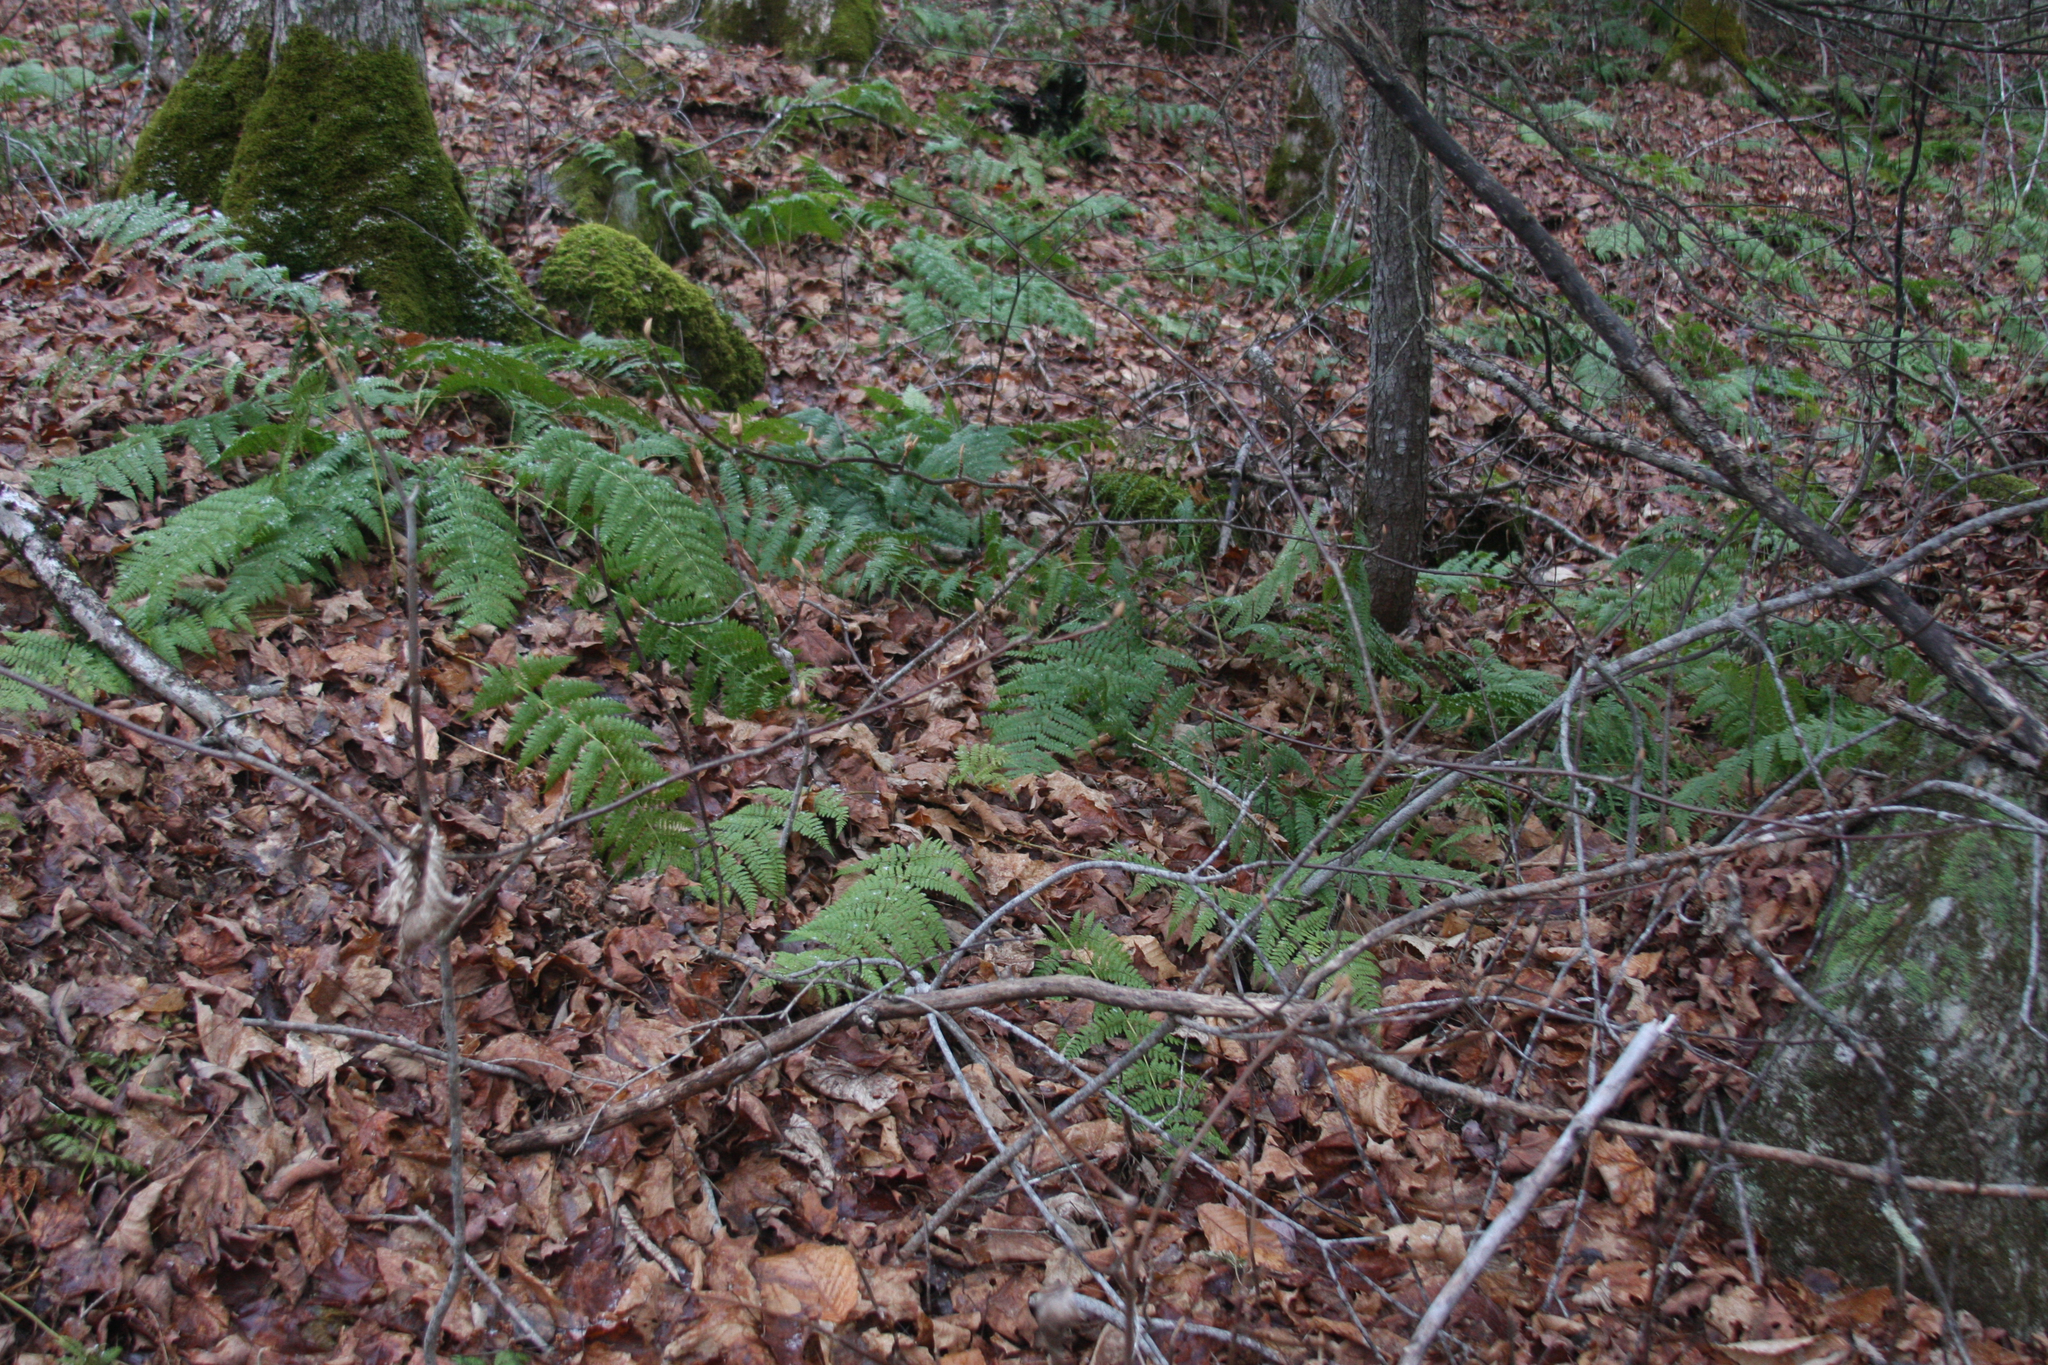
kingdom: Plantae
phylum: Tracheophyta
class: Magnoliopsida
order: Dipsacales
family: Viburnaceae
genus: Viburnum
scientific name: Viburnum lantanoides
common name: Hobblebush
